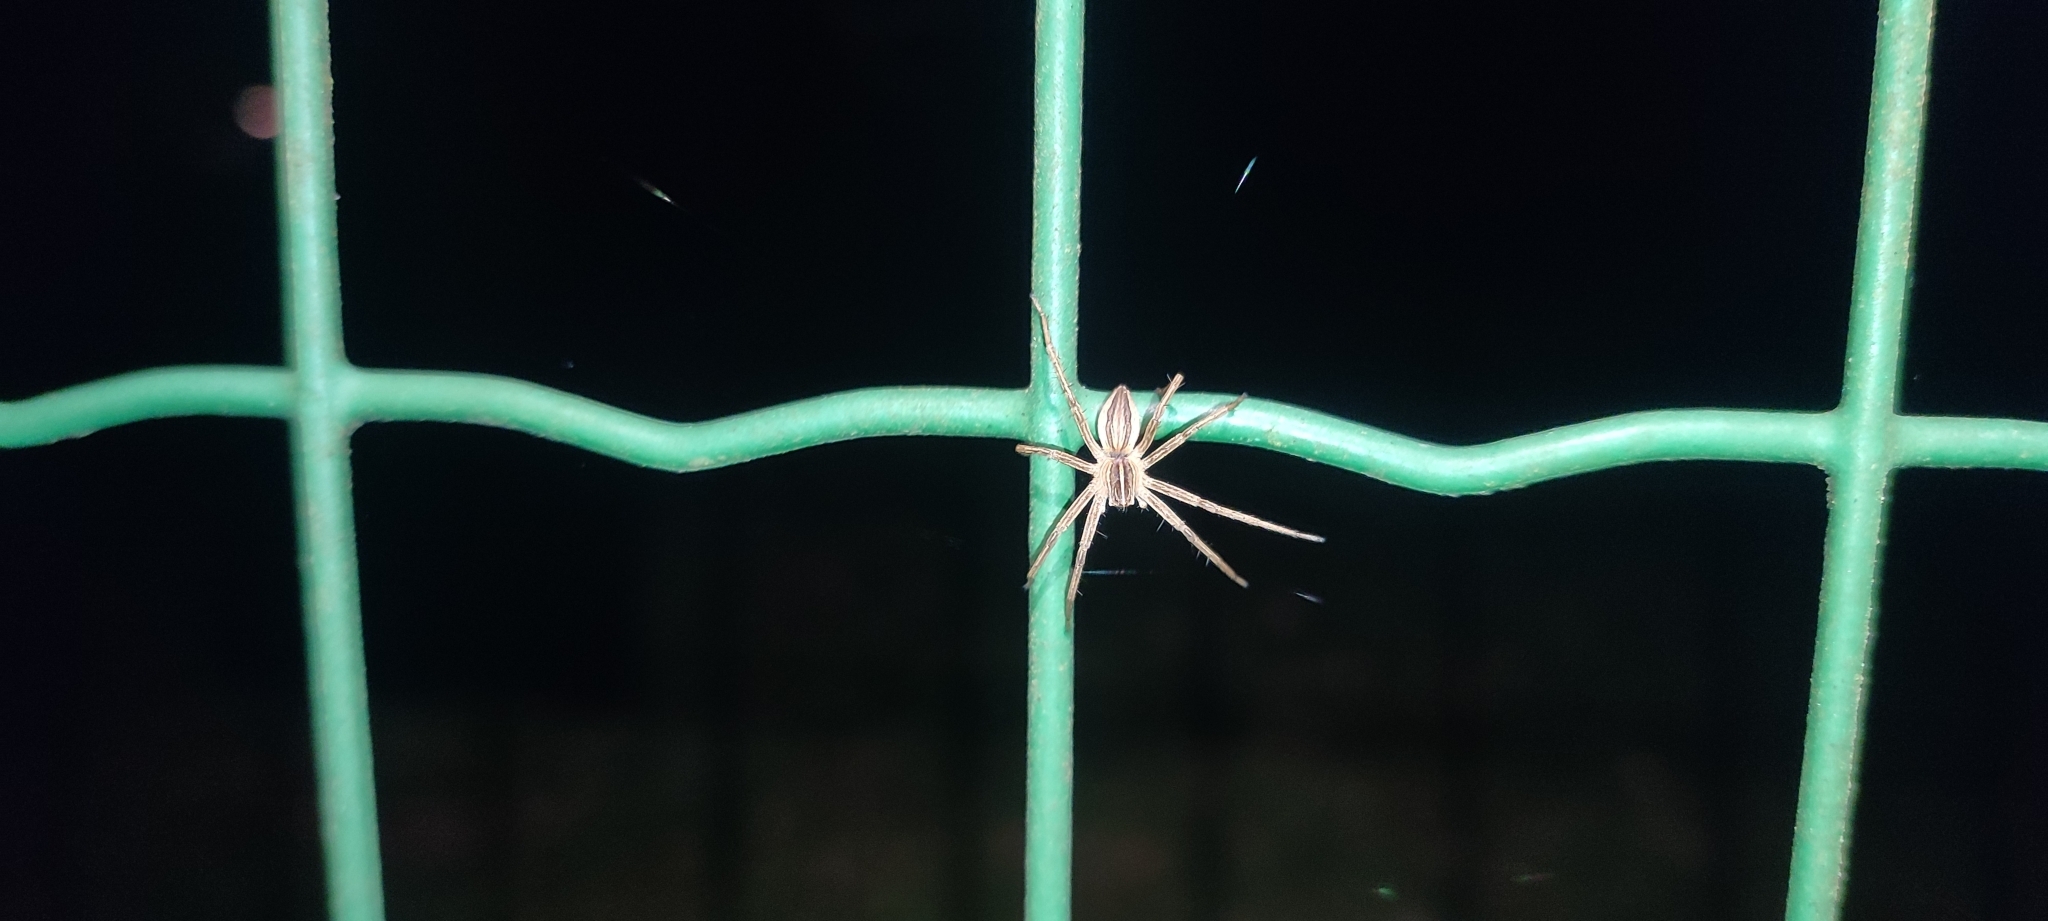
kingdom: Animalia
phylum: Arthropoda
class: Arachnida
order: Araneae
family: Pisauridae
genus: Pisaura
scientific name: Pisaura mirabilis
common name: Tent spider
